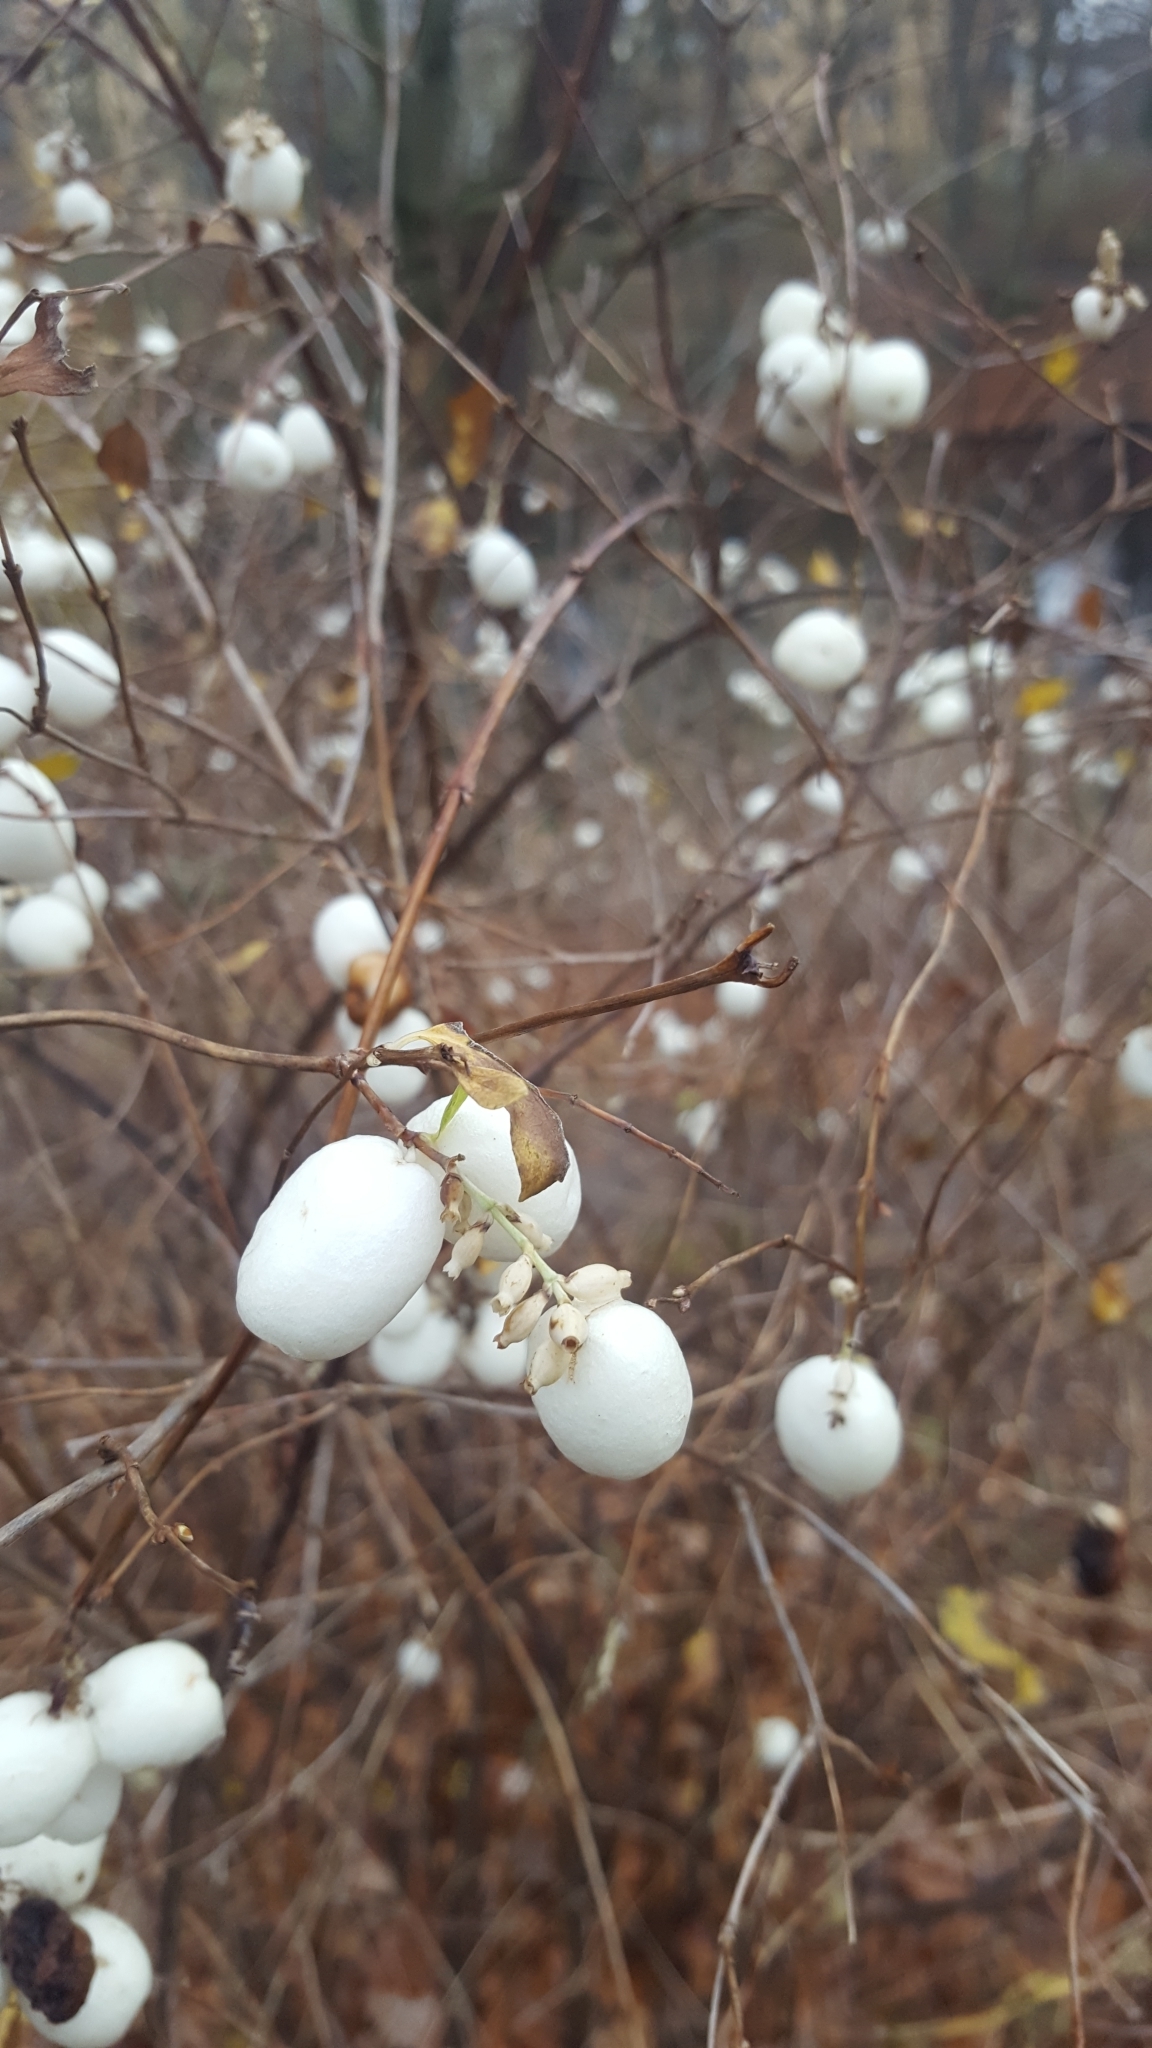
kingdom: Plantae
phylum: Tracheophyta
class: Magnoliopsida
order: Dipsacales
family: Caprifoliaceae
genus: Symphoricarpos
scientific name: Symphoricarpos albus
